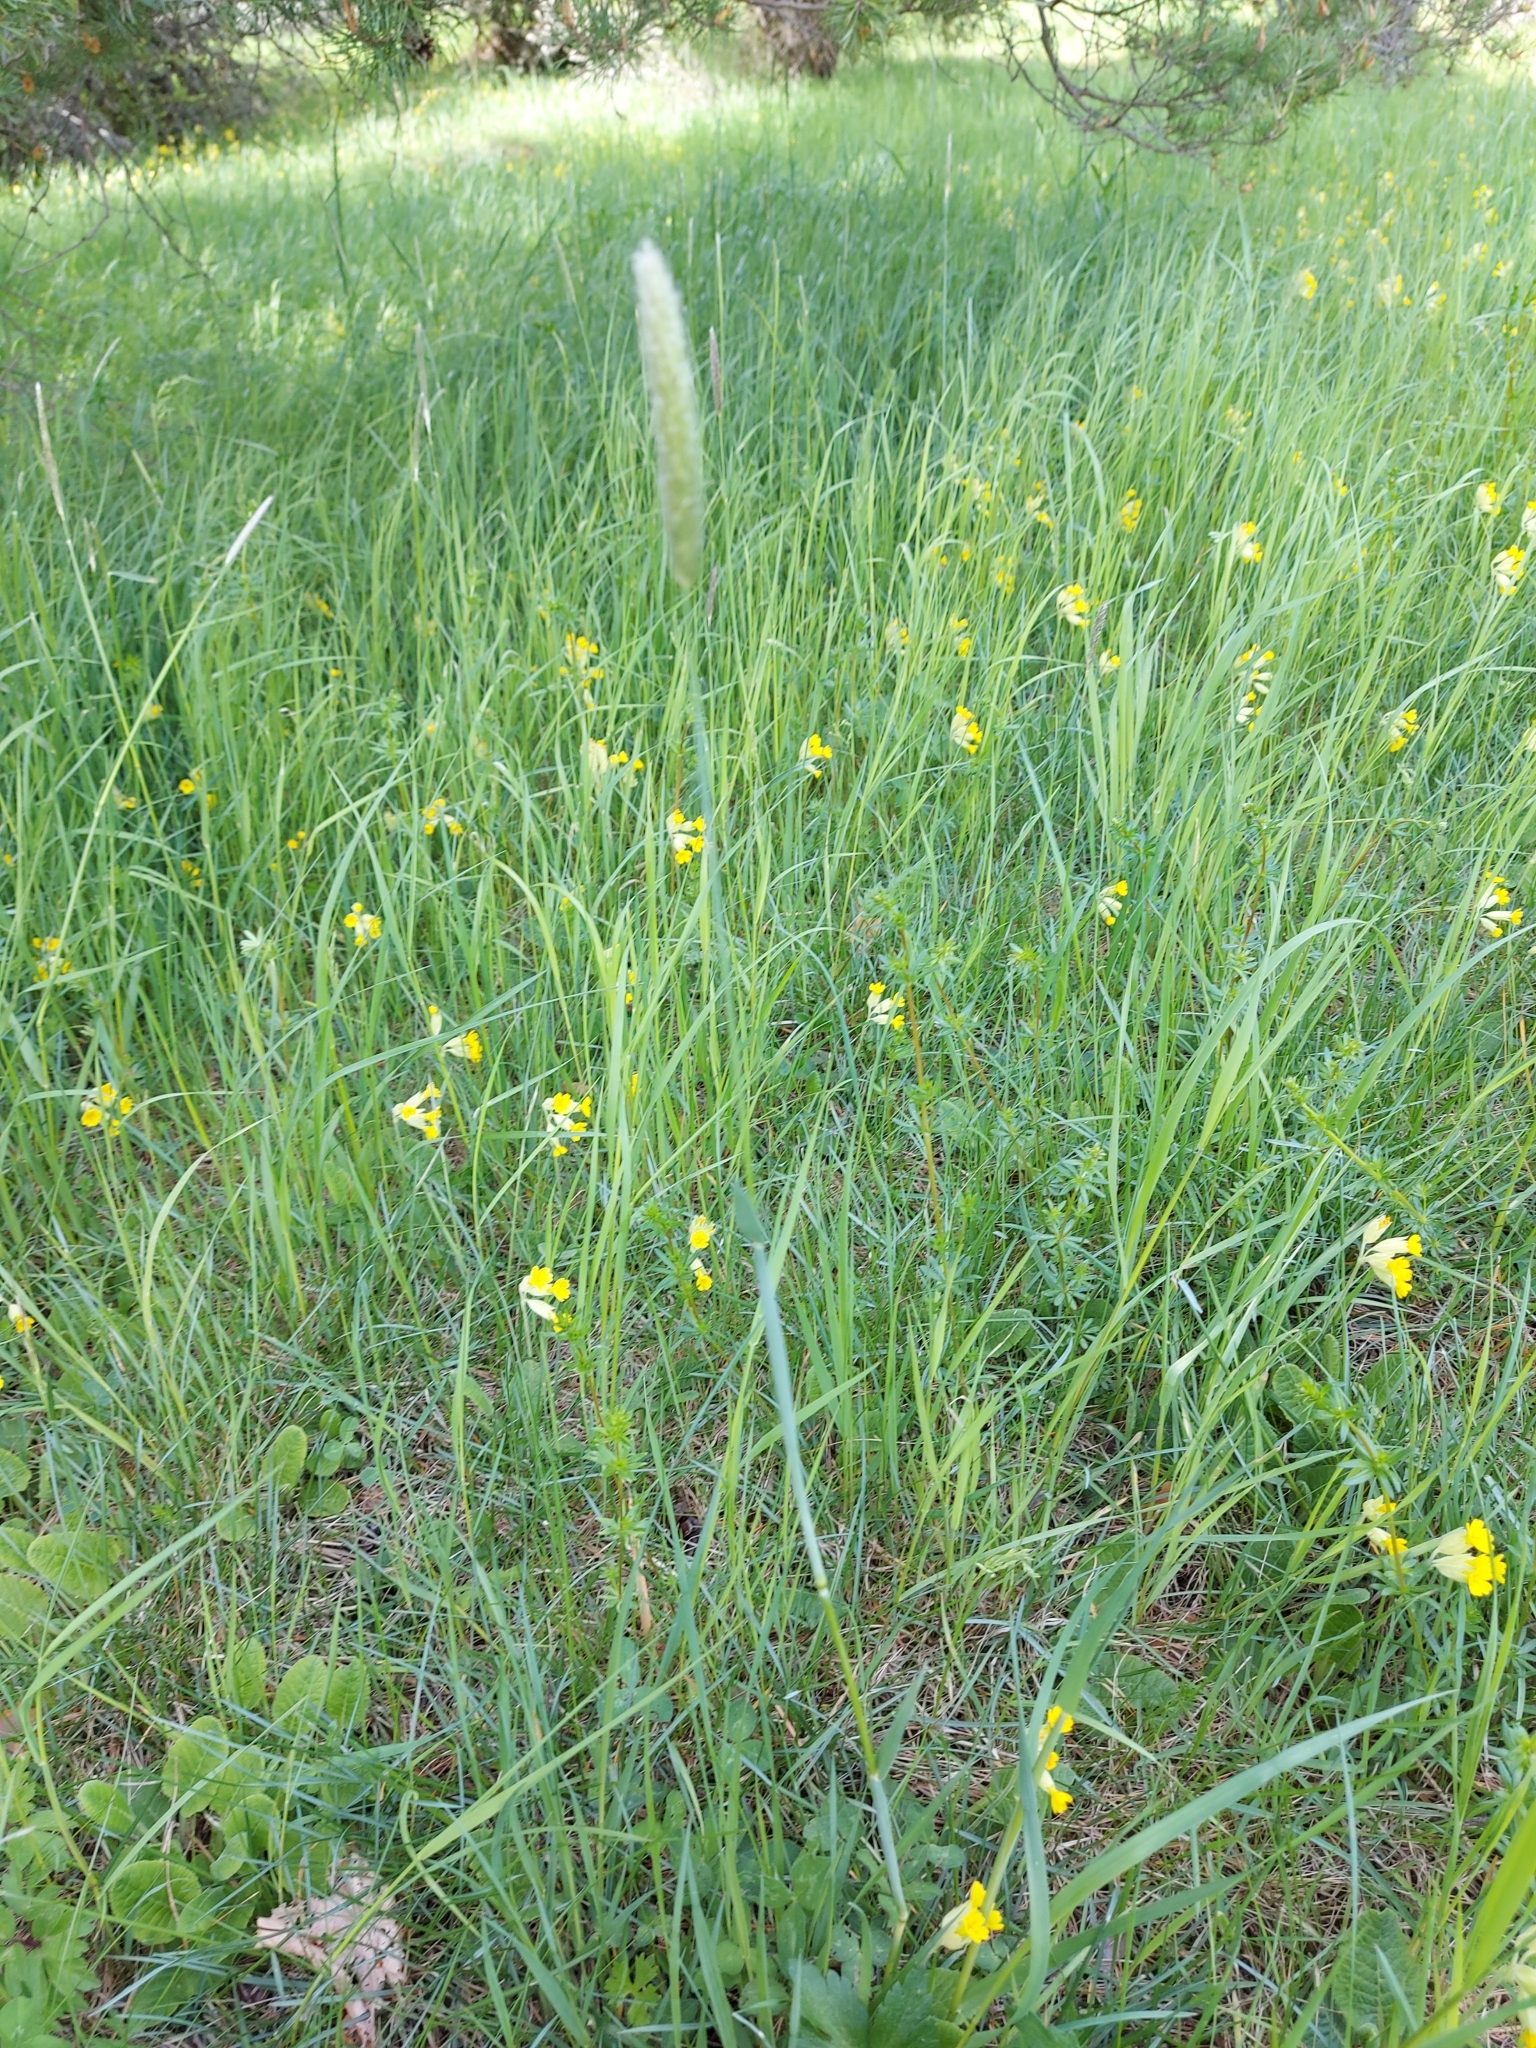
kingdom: Plantae
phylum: Tracheophyta
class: Liliopsida
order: Poales
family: Poaceae
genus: Alopecurus
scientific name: Alopecurus pratensis
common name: Meadow foxtail
